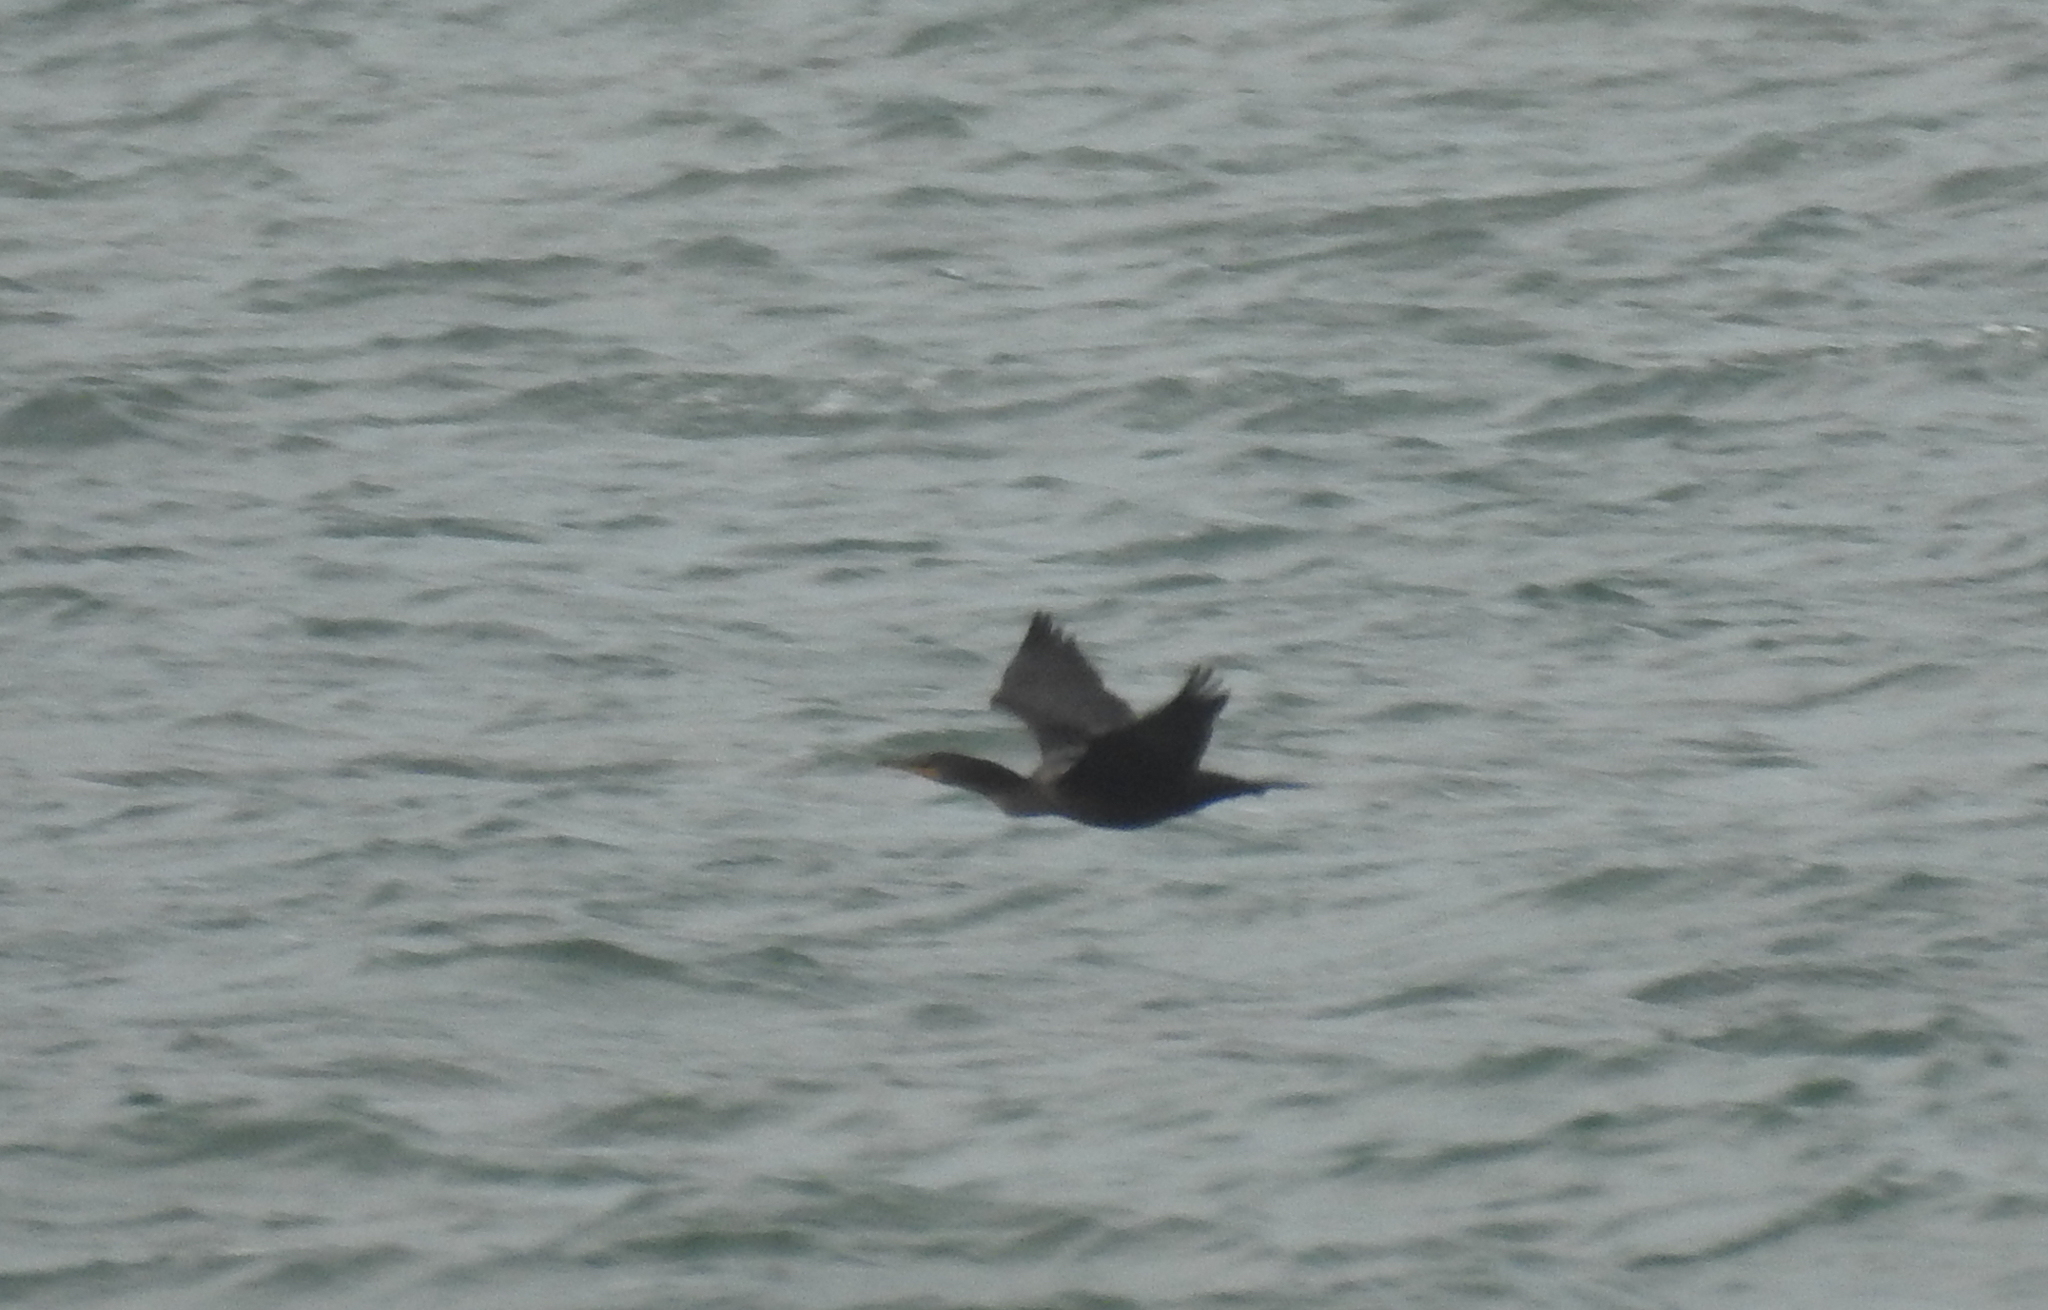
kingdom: Animalia
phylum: Chordata
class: Aves
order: Suliformes
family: Phalacrocoracidae
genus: Phalacrocorax
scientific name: Phalacrocorax auritus
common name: Double-crested cormorant
